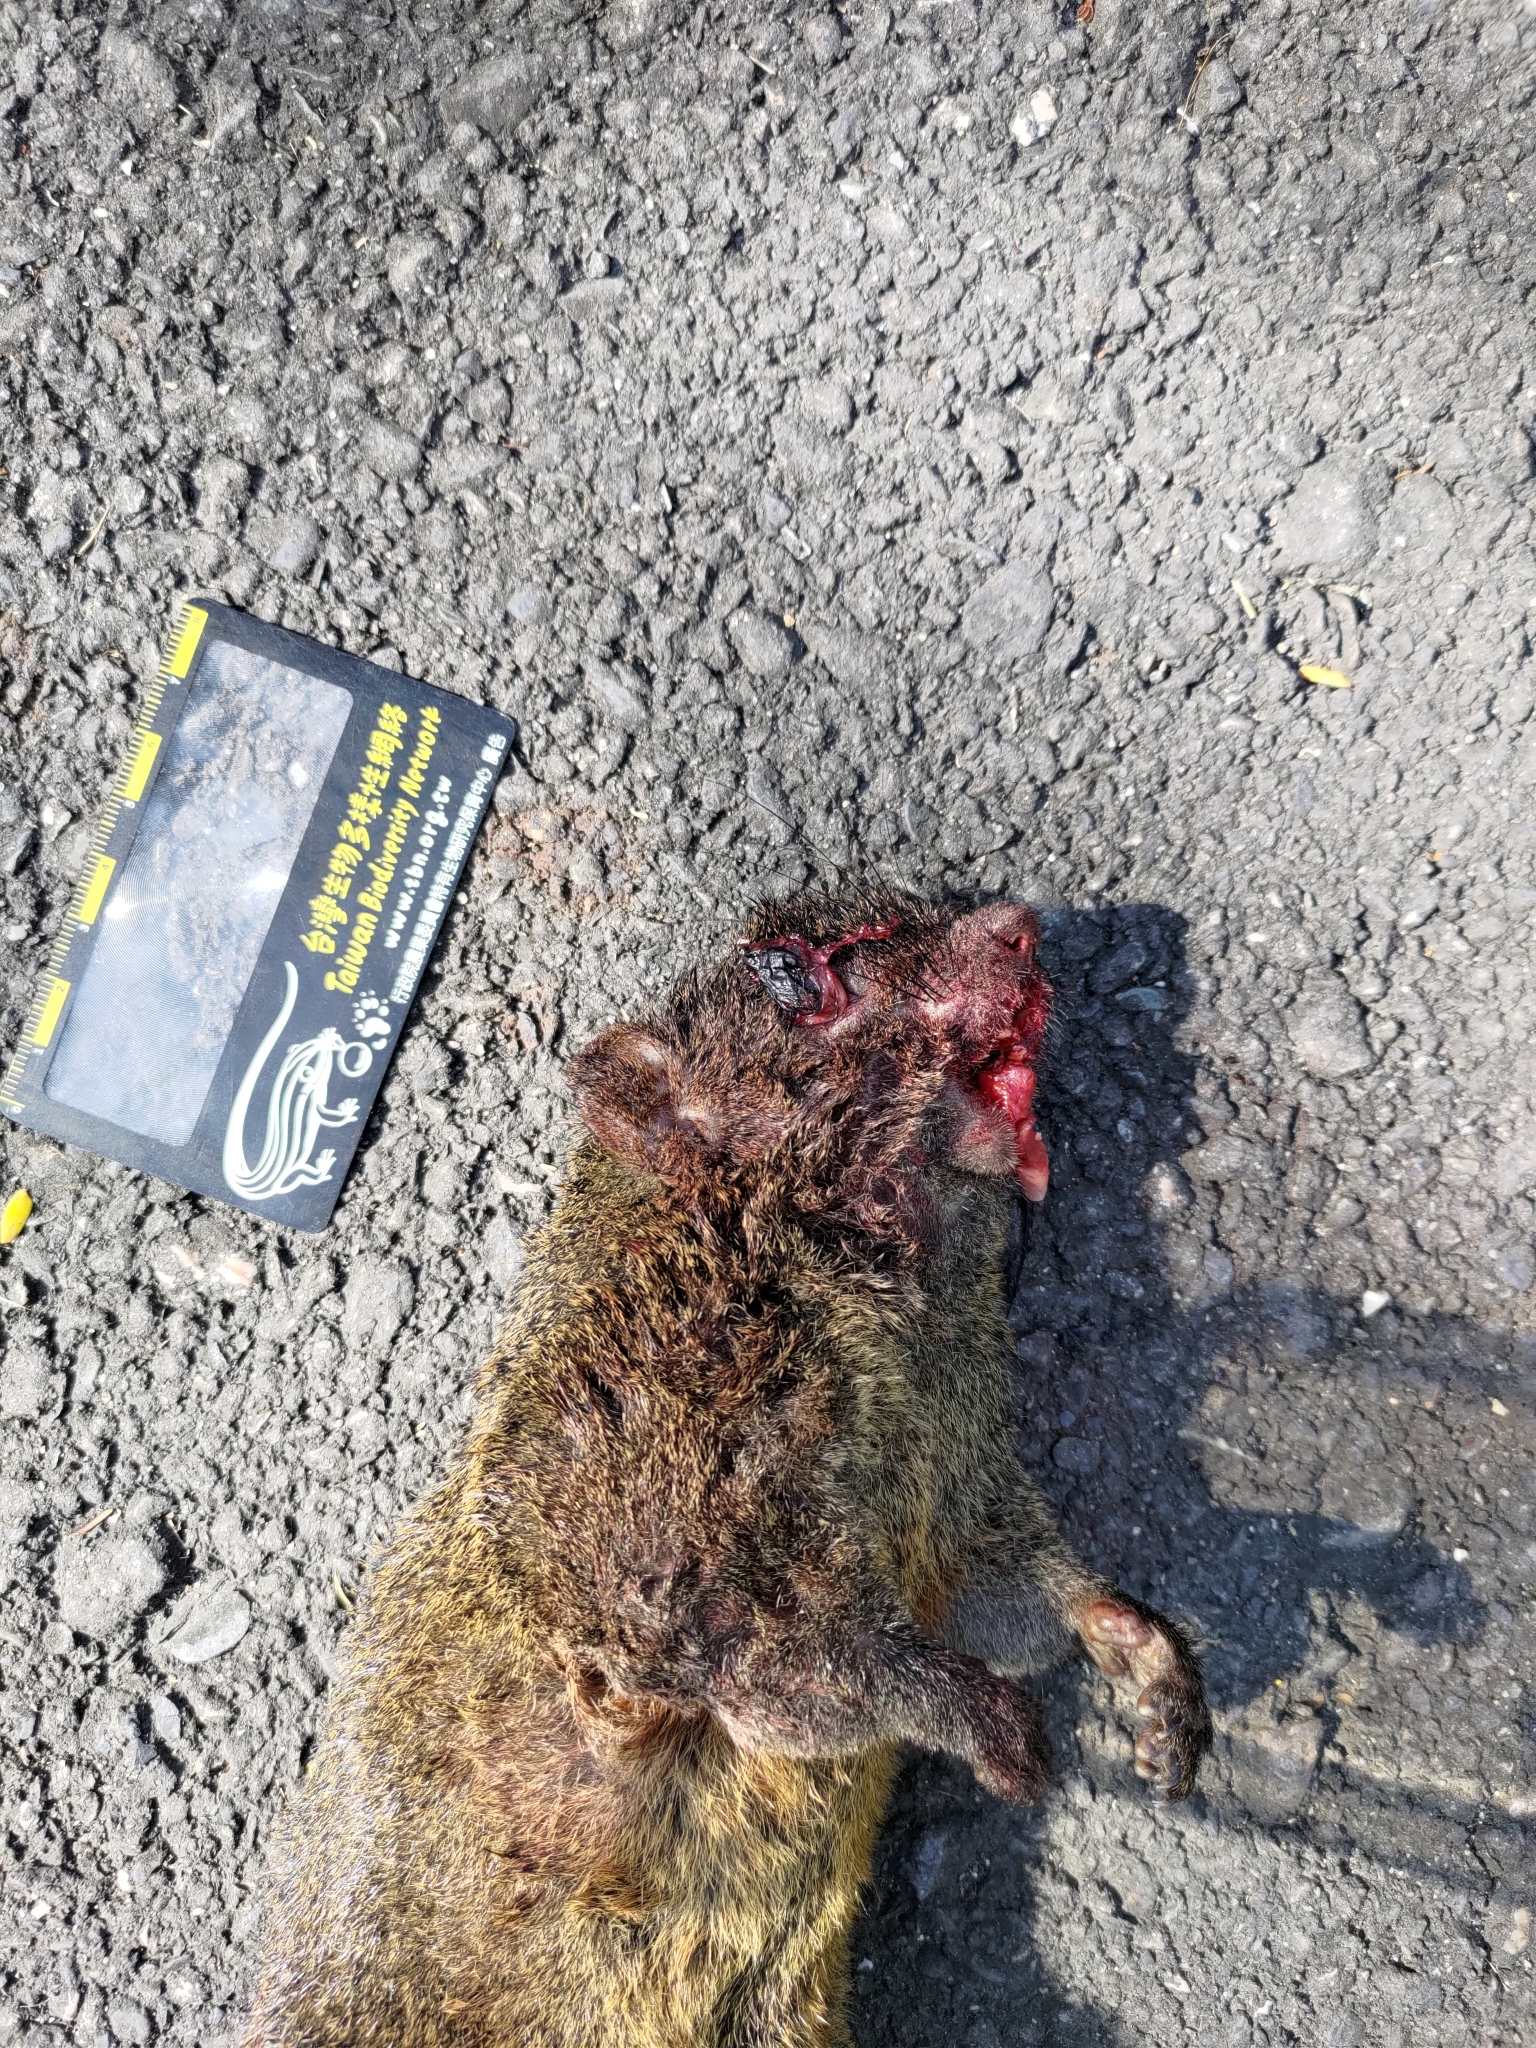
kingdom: Animalia
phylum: Chordata
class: Mammalia
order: Rodentia
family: Sciuridae
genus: Callosciurus
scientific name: Callosciurus erythraeus
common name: Pallas's squirrel
